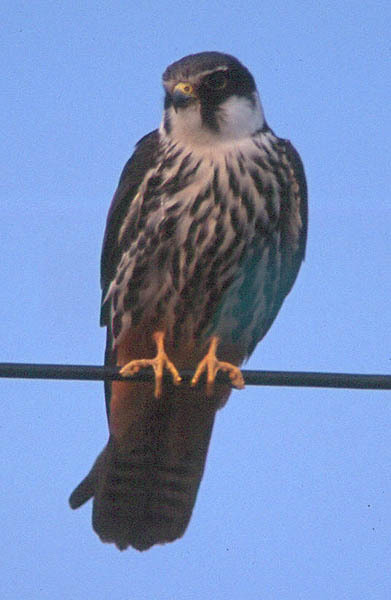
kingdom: Animalia
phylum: Chordata
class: Aves
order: Falconiformes
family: Falconidae
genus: Falco
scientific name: Falco subbuteo
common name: Eurasian hobby
